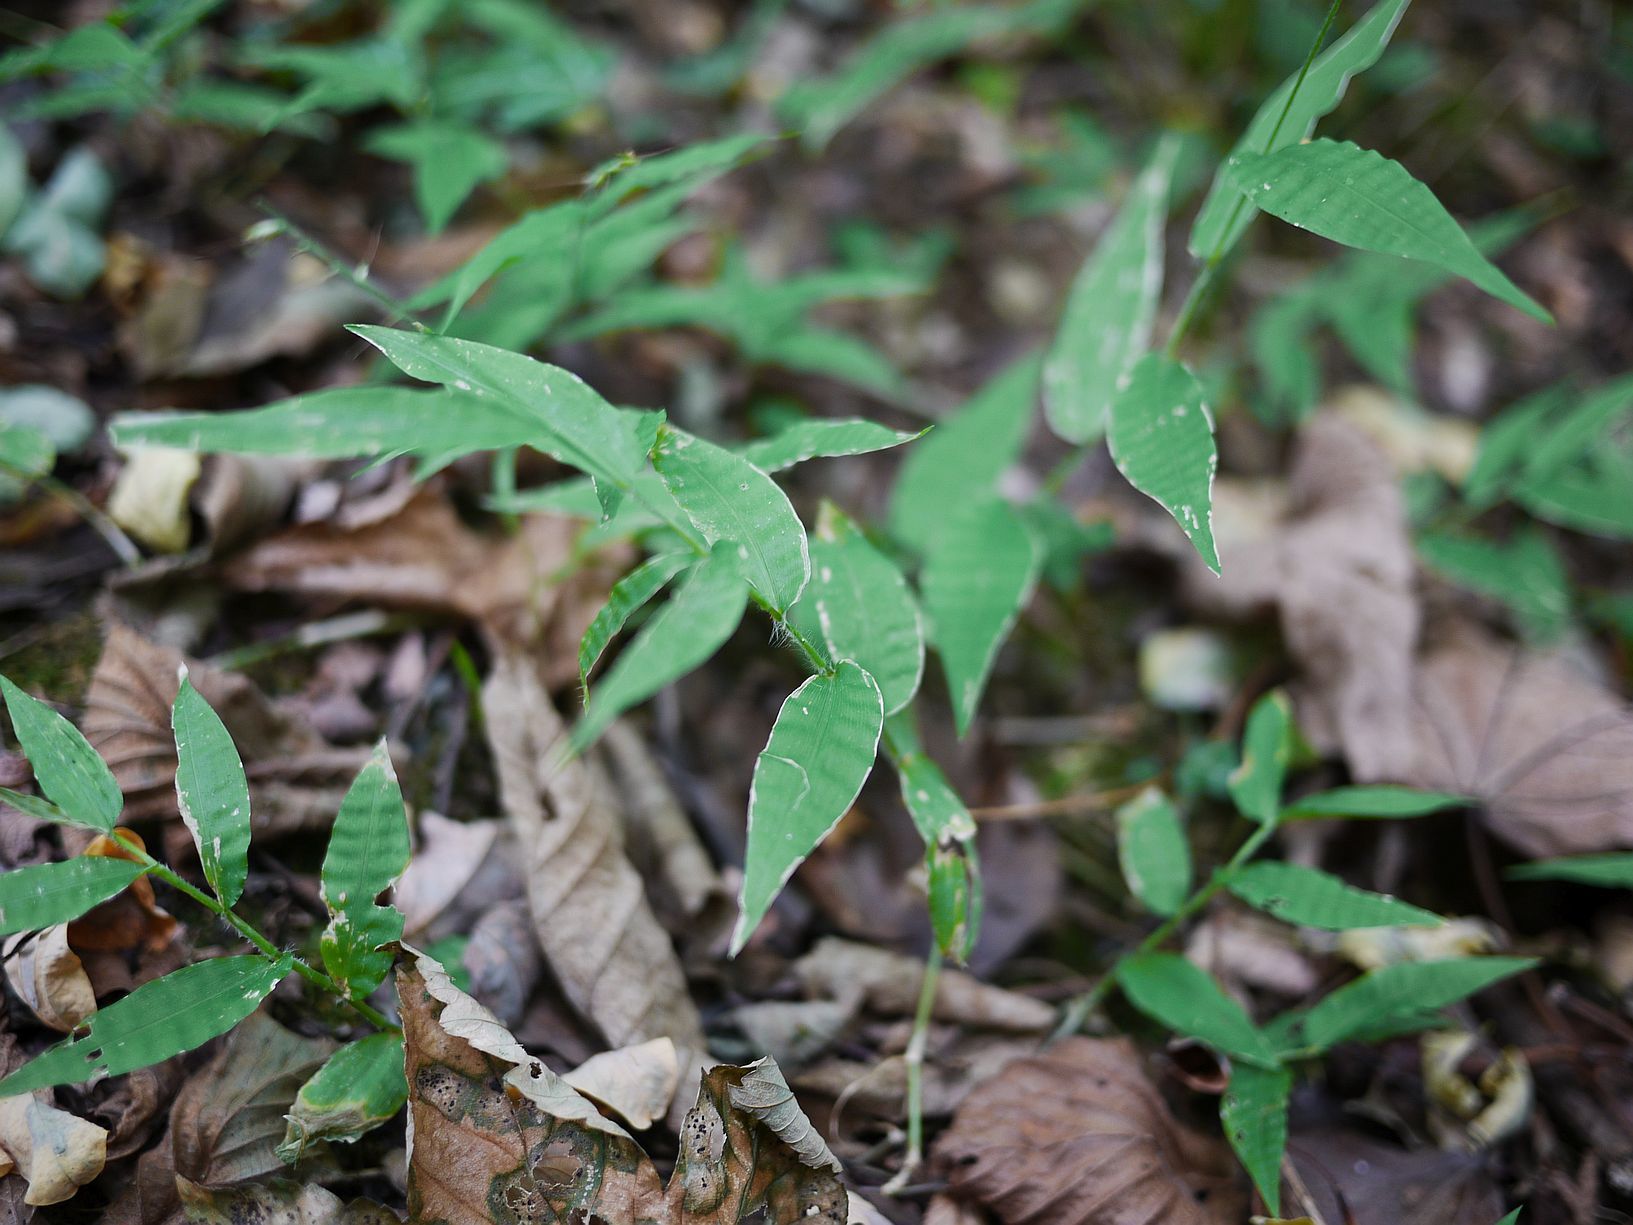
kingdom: Plantae
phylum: Tracheophyta
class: Liliopsida
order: Poales
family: Poaceae
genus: Oplismenus
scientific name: Oplismenus undulatifolius
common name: Wavyleaf basketgrass
